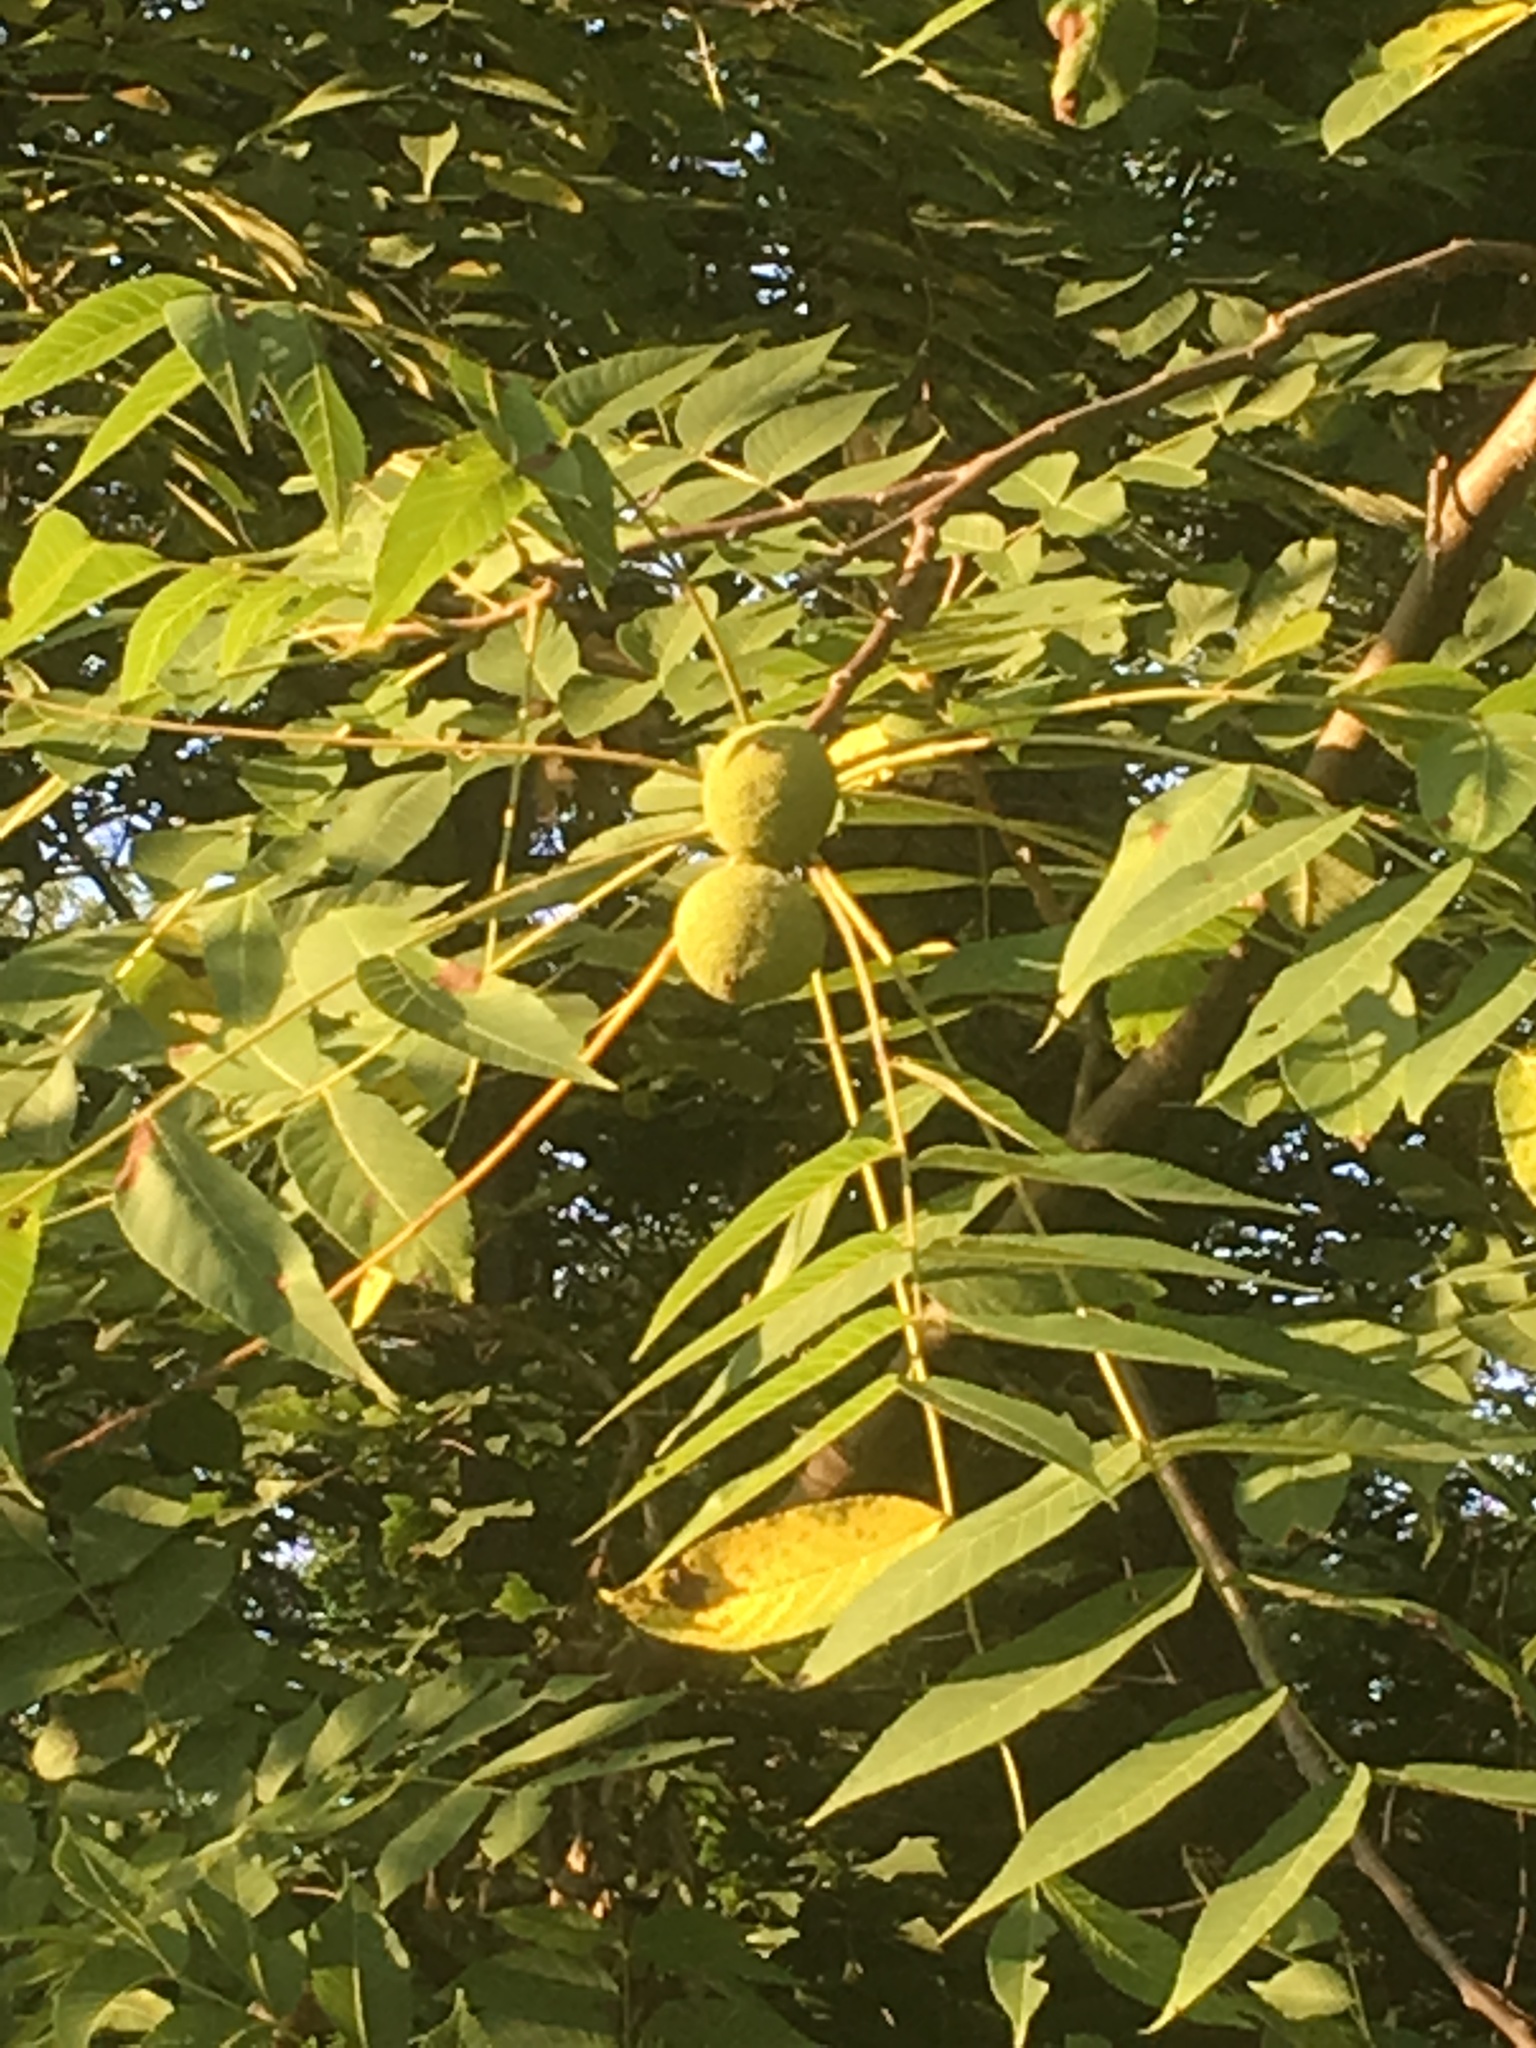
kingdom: Plantae
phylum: Tracheophyta
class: Magnoliopsida
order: Fagales
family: Juglandaceae
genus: Juglans
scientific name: Juglans nigra
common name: Black walnut
